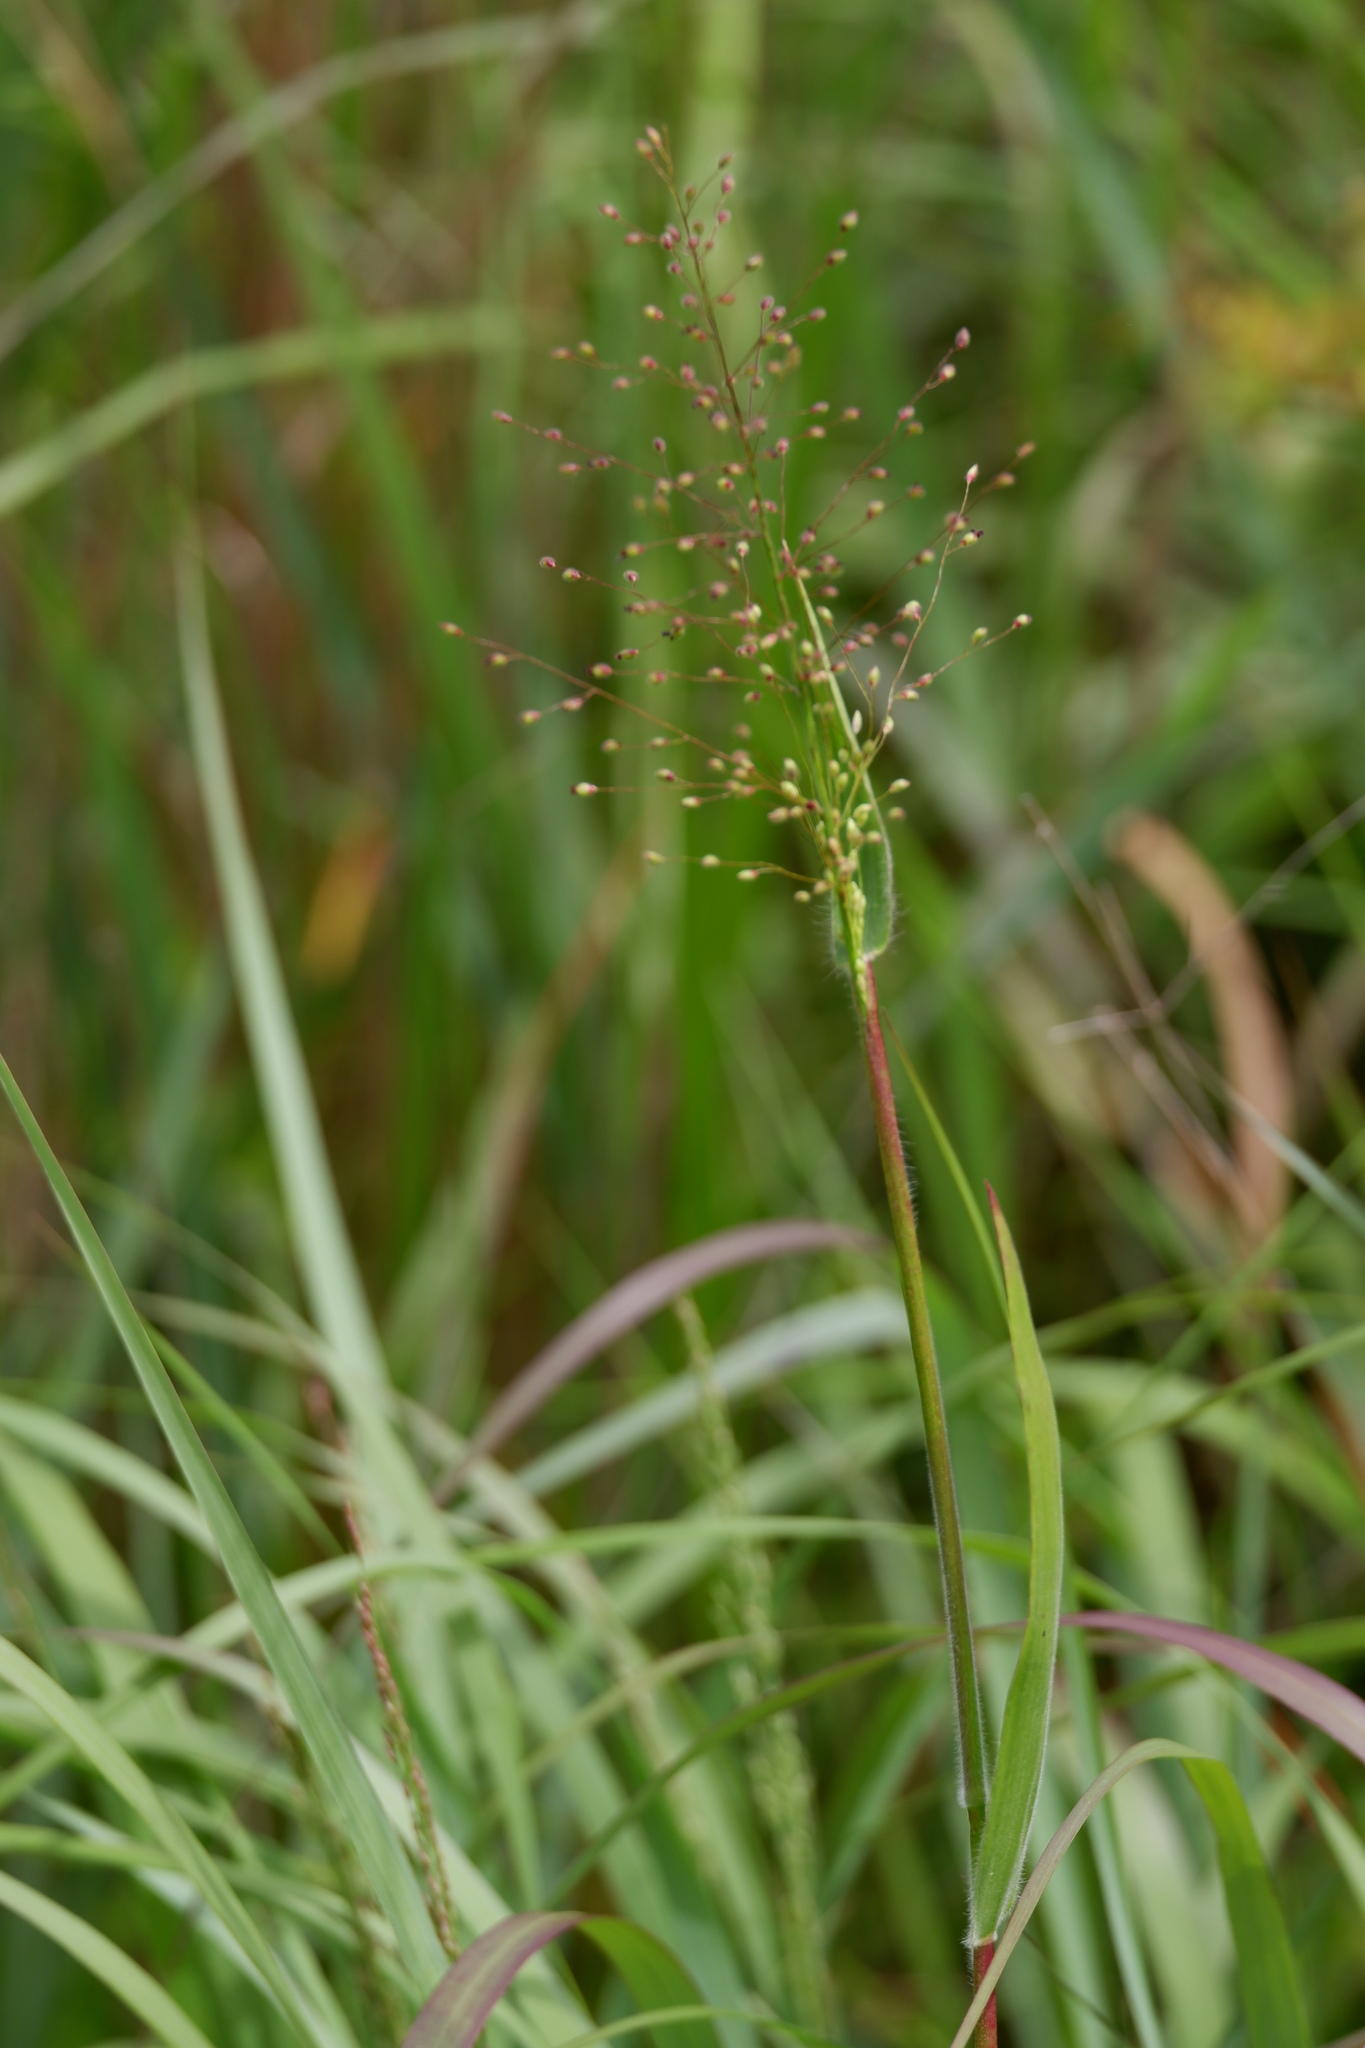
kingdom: Plantae
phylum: Tracheophyta
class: Liliopsida
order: Poales
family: Poaceae
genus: Dichanthelium
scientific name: Dichanthelium scoparium
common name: Velvety panic grass
